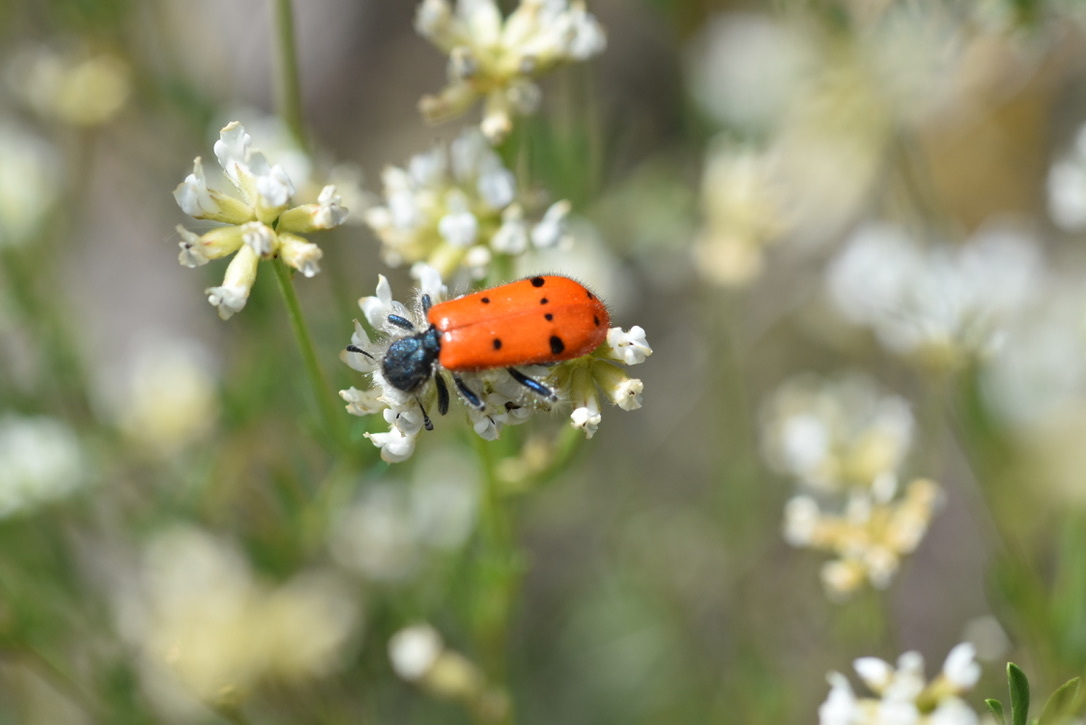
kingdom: Animalia
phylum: Arthropoda
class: Insecta
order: Coleoptera
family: Cleridae
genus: Trichodes
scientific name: Trichodes octopunctatus
